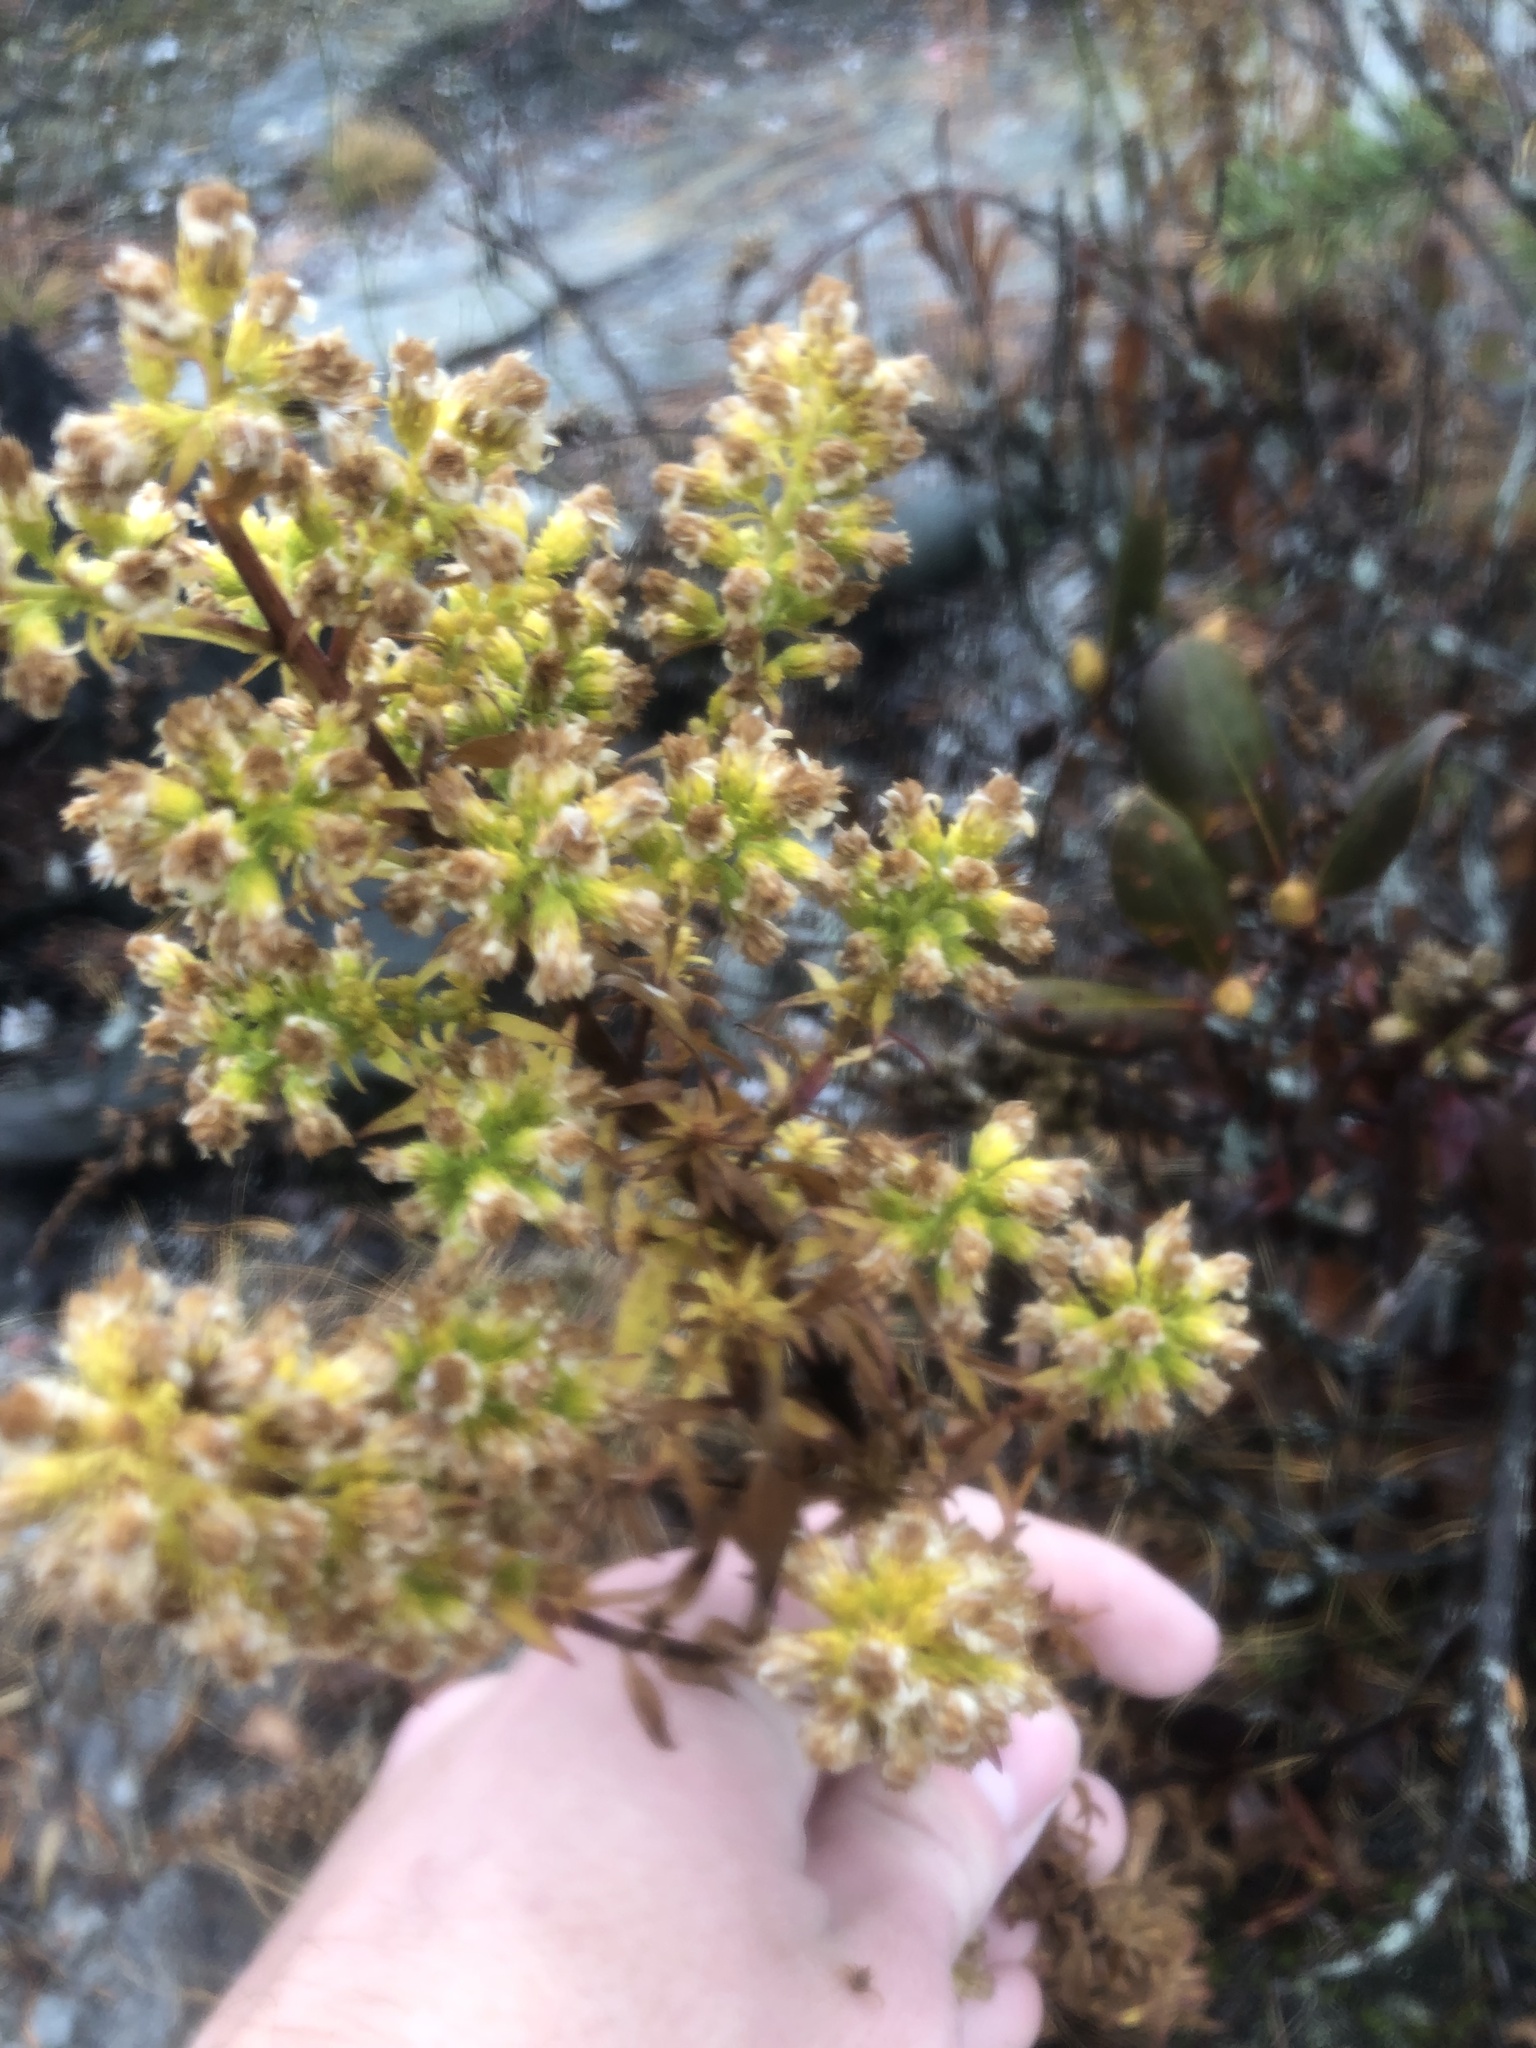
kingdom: Plantae
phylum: Tracheophyta
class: Magnoliopsida
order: Asterales
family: Asteraceae
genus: Solidago
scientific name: Solidago roanensis
